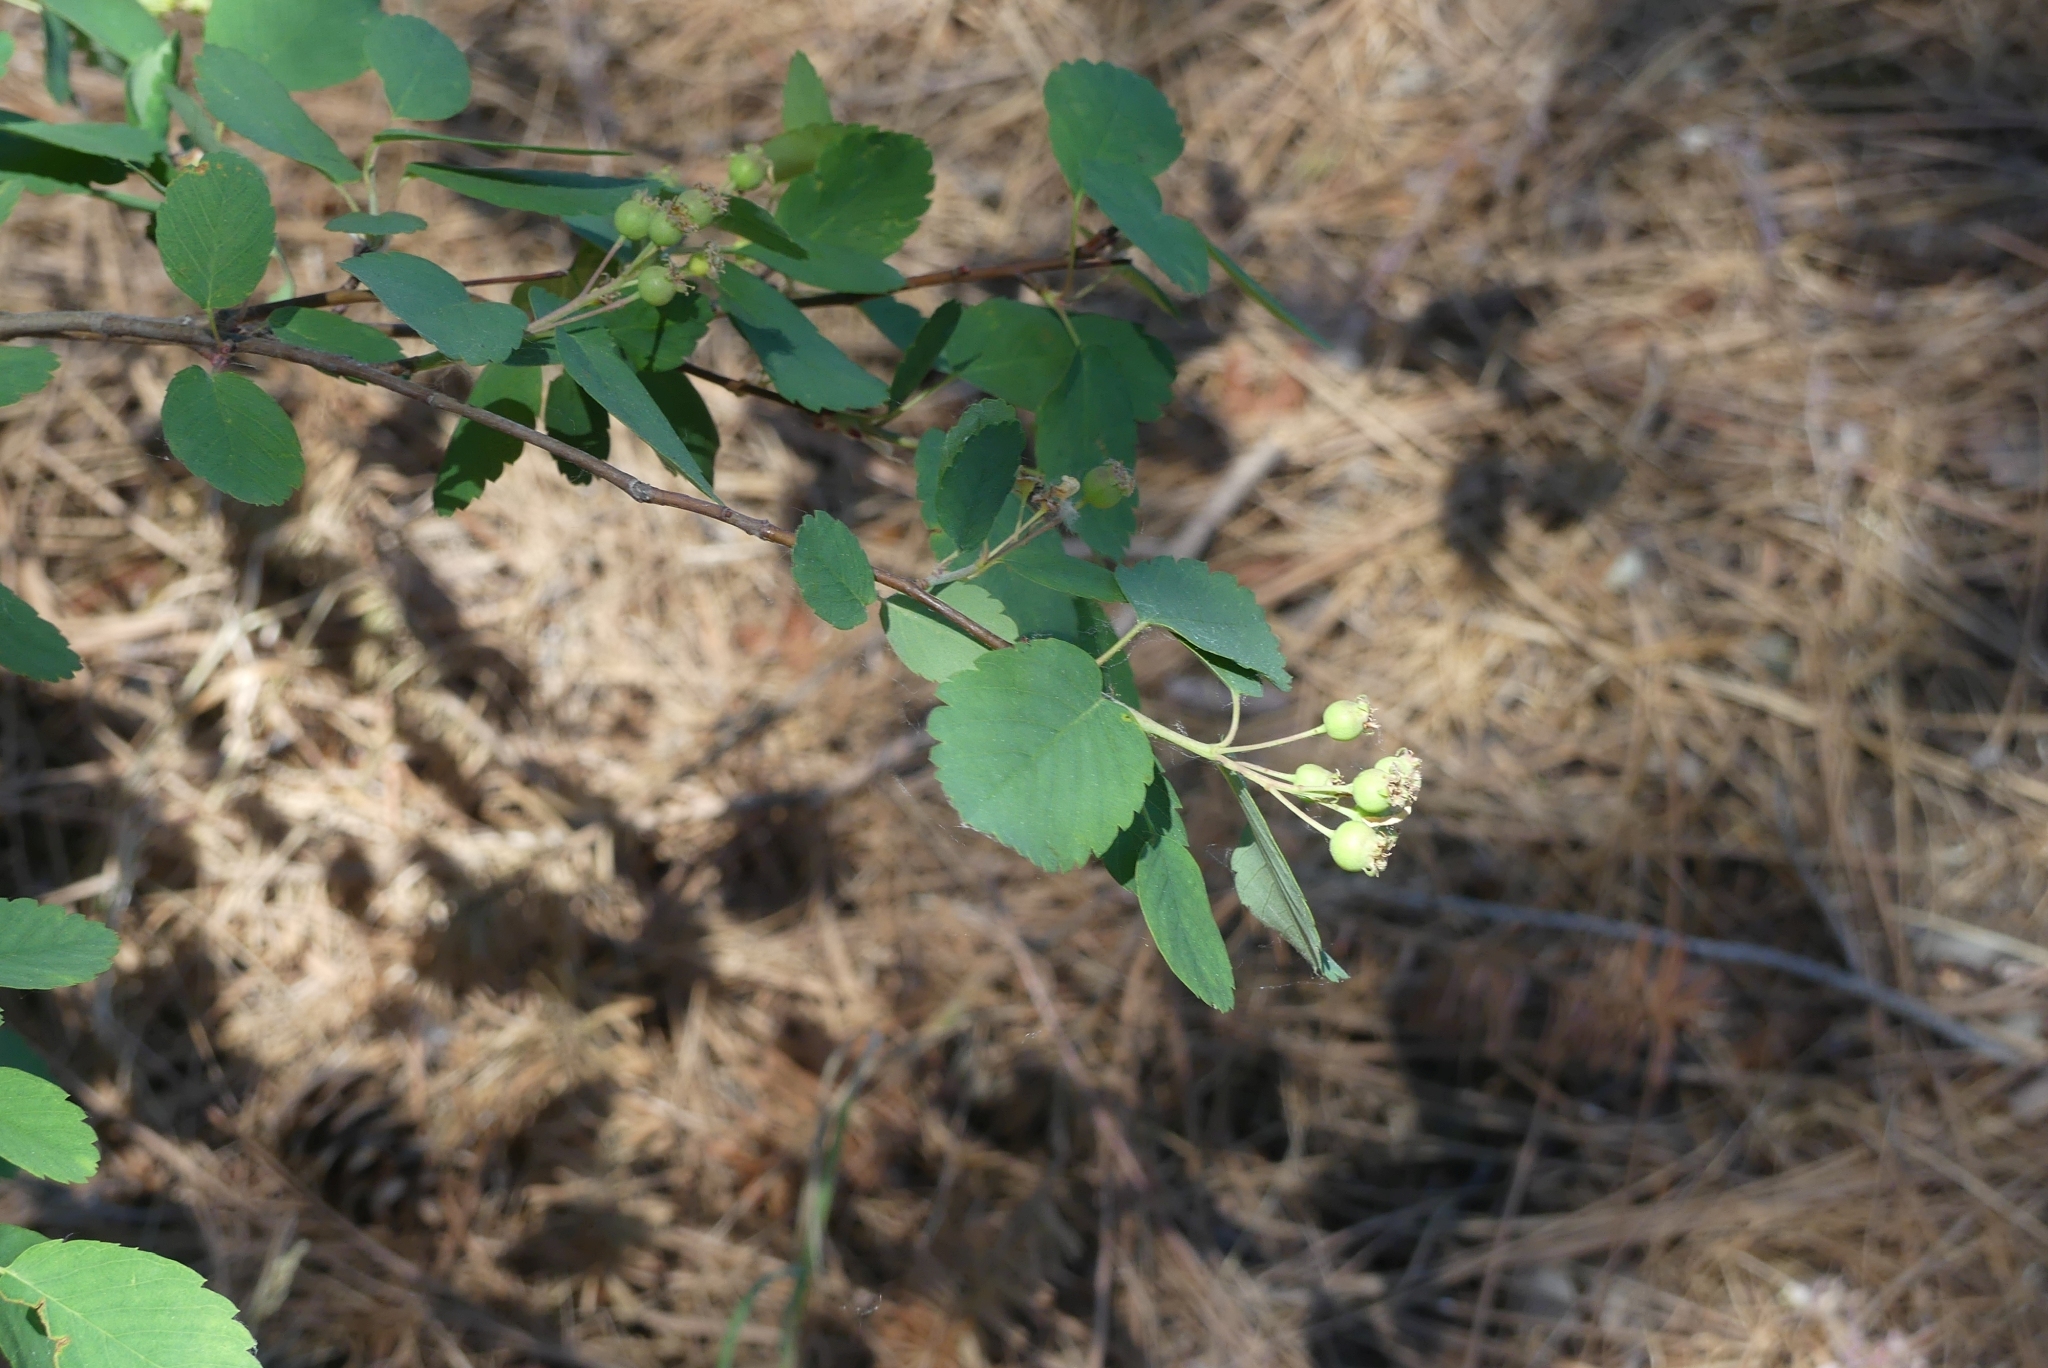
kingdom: Plantae
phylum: Tracheophyta
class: Magnoliopsida
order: Rosales
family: Rosaceae
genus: Amelanchier
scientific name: Amelanchier alnifolia
